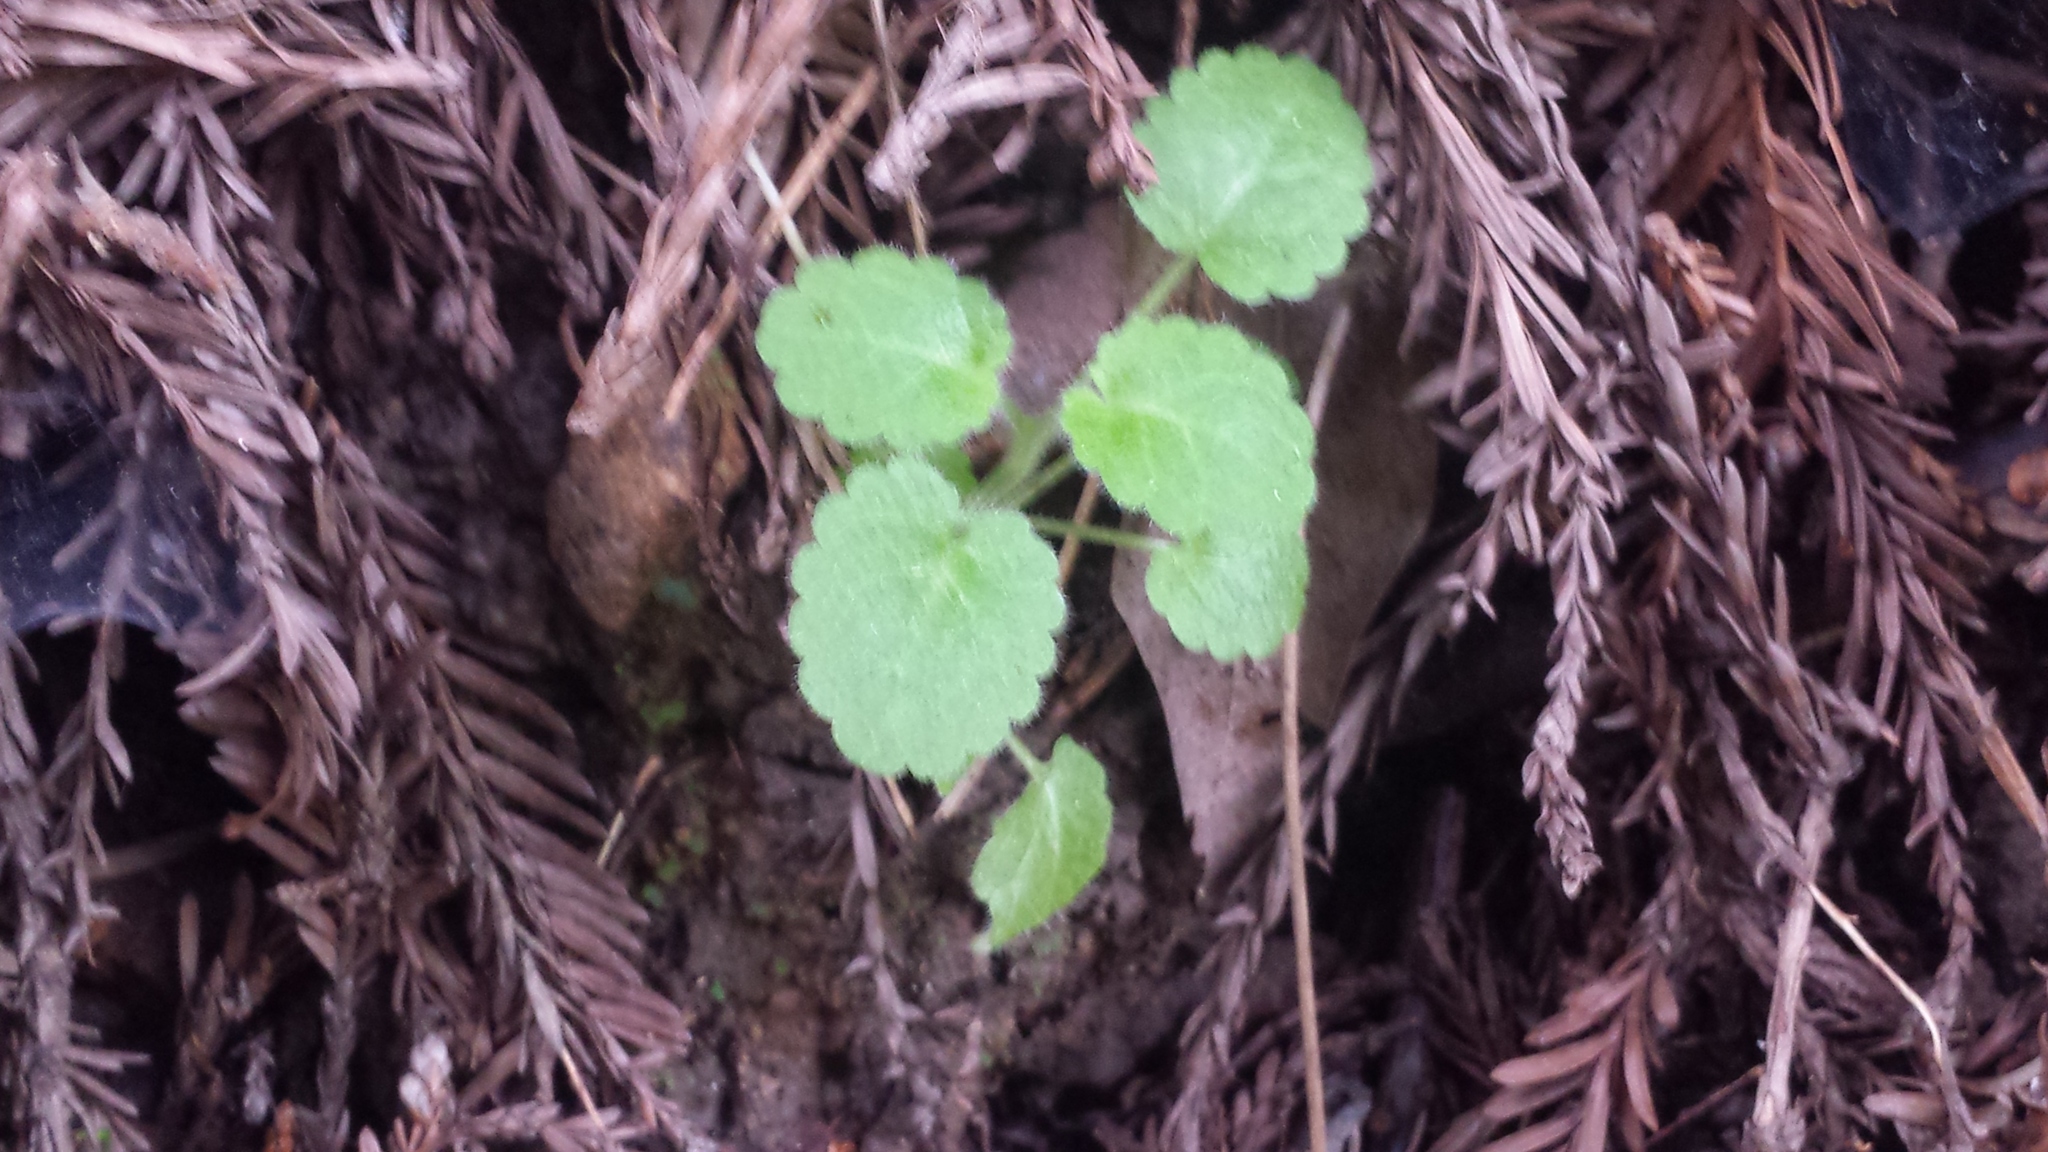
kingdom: Plantae
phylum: Tracheophyta
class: Magnoliopsida
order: Lamiales
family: Lamiaceae
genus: Stachys
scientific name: Stachys bullata
